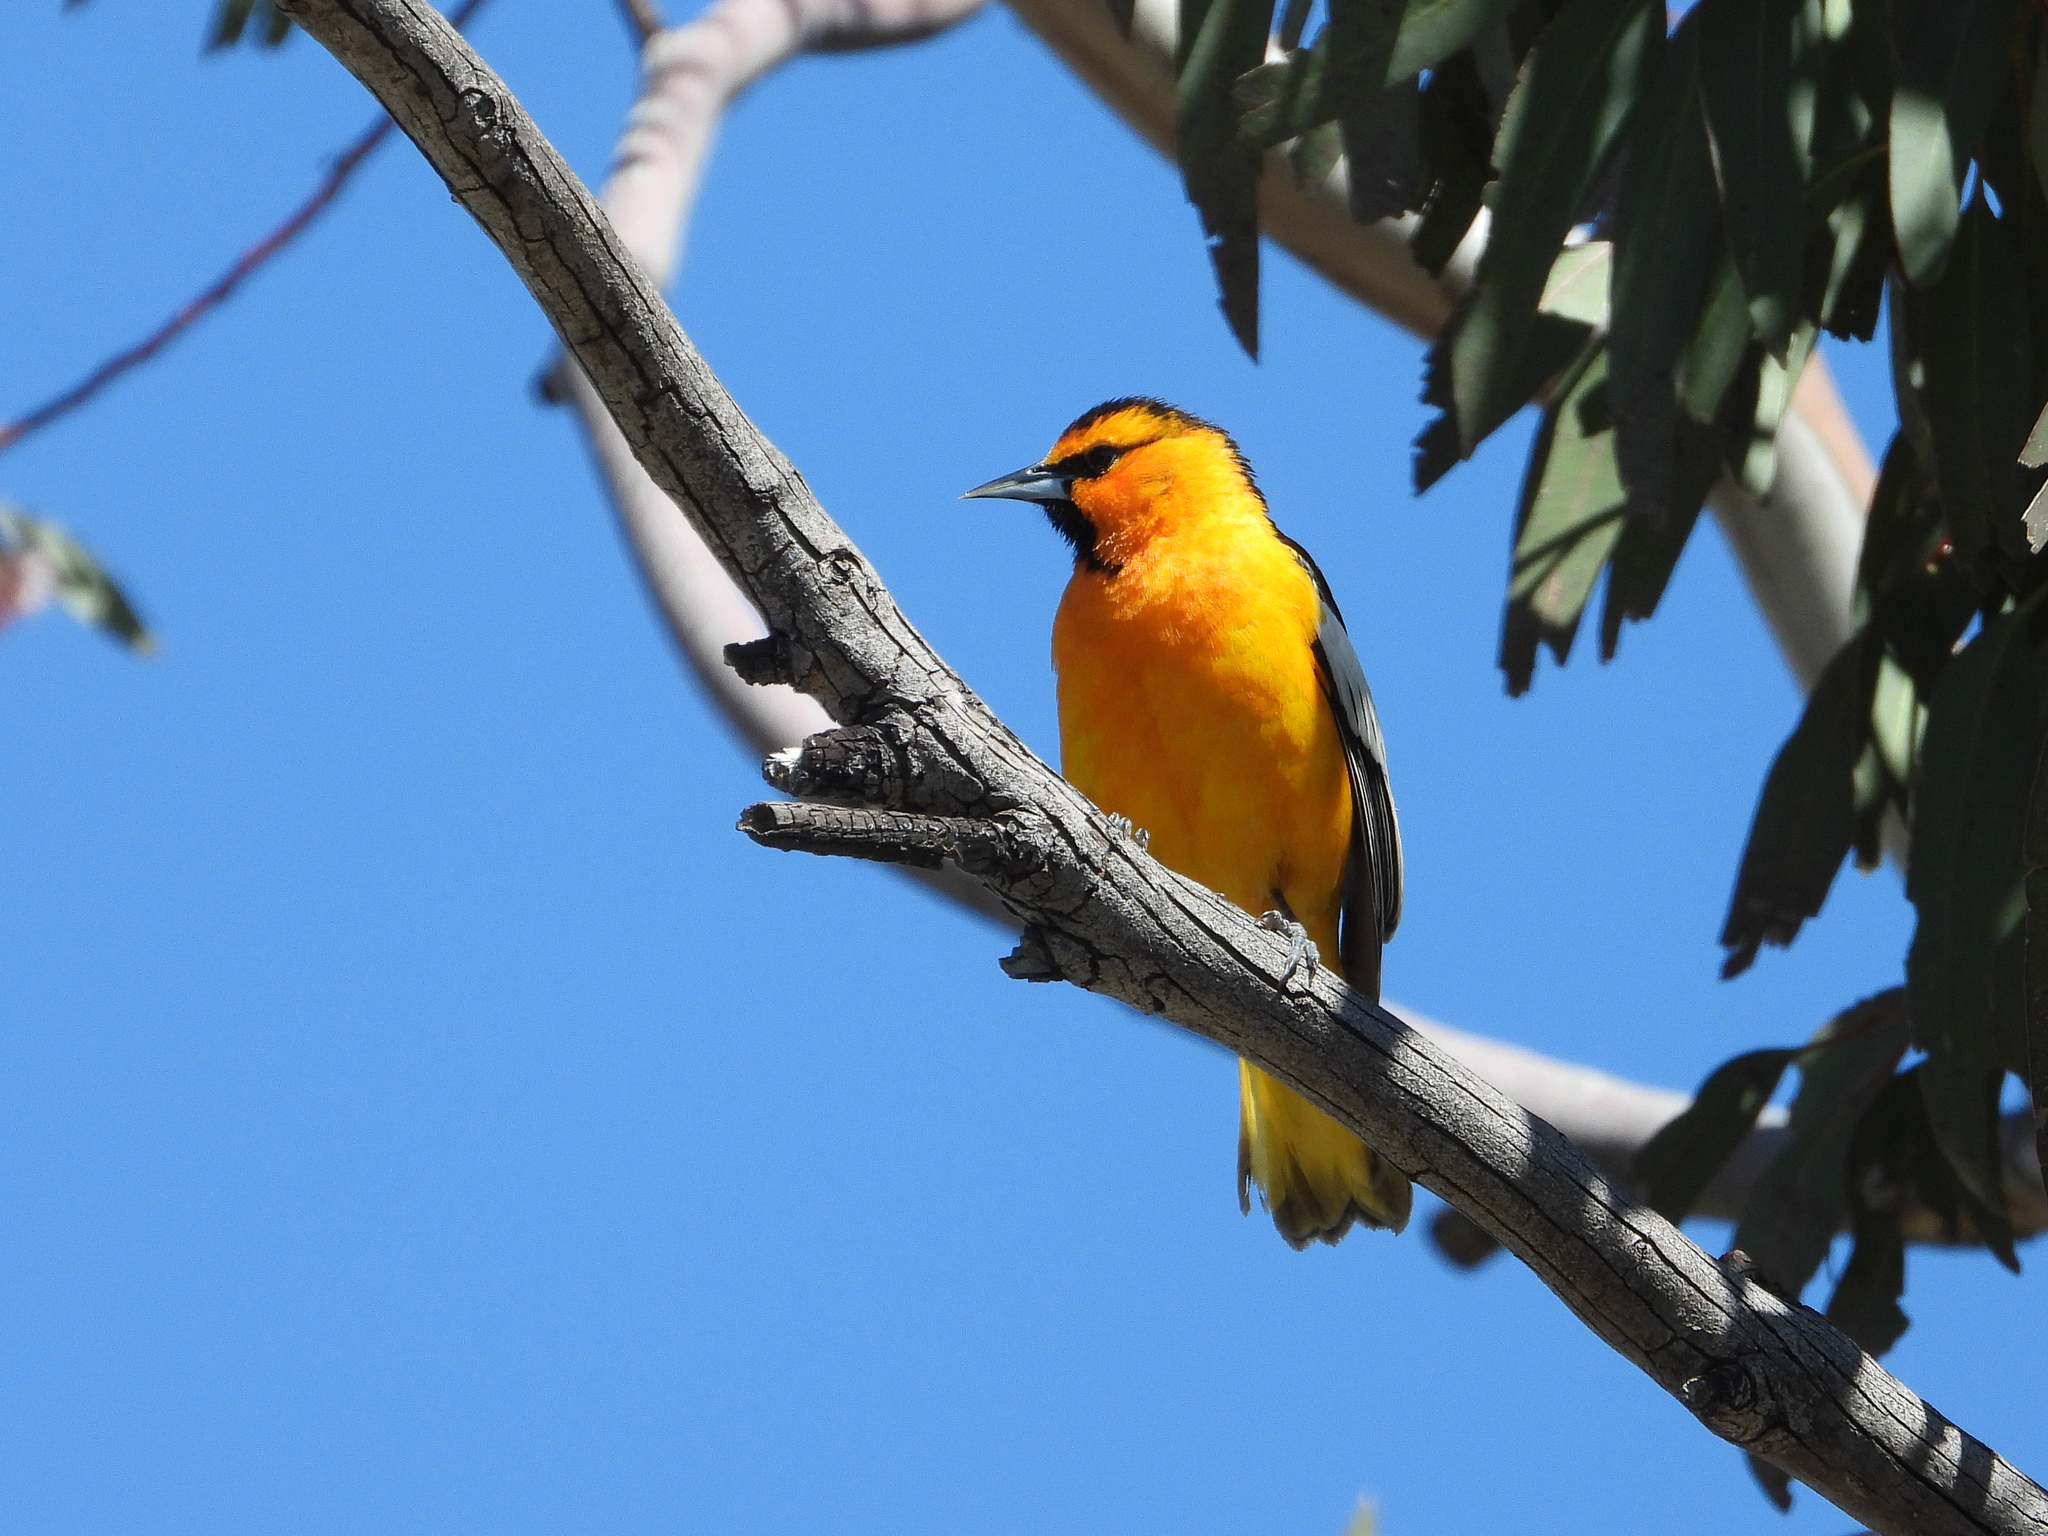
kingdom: Animalia
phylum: Chordata
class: Aves
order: Passeriformes
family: Icteridae
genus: Icterus
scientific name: Icterus bullockii
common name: Bullock's oriole
